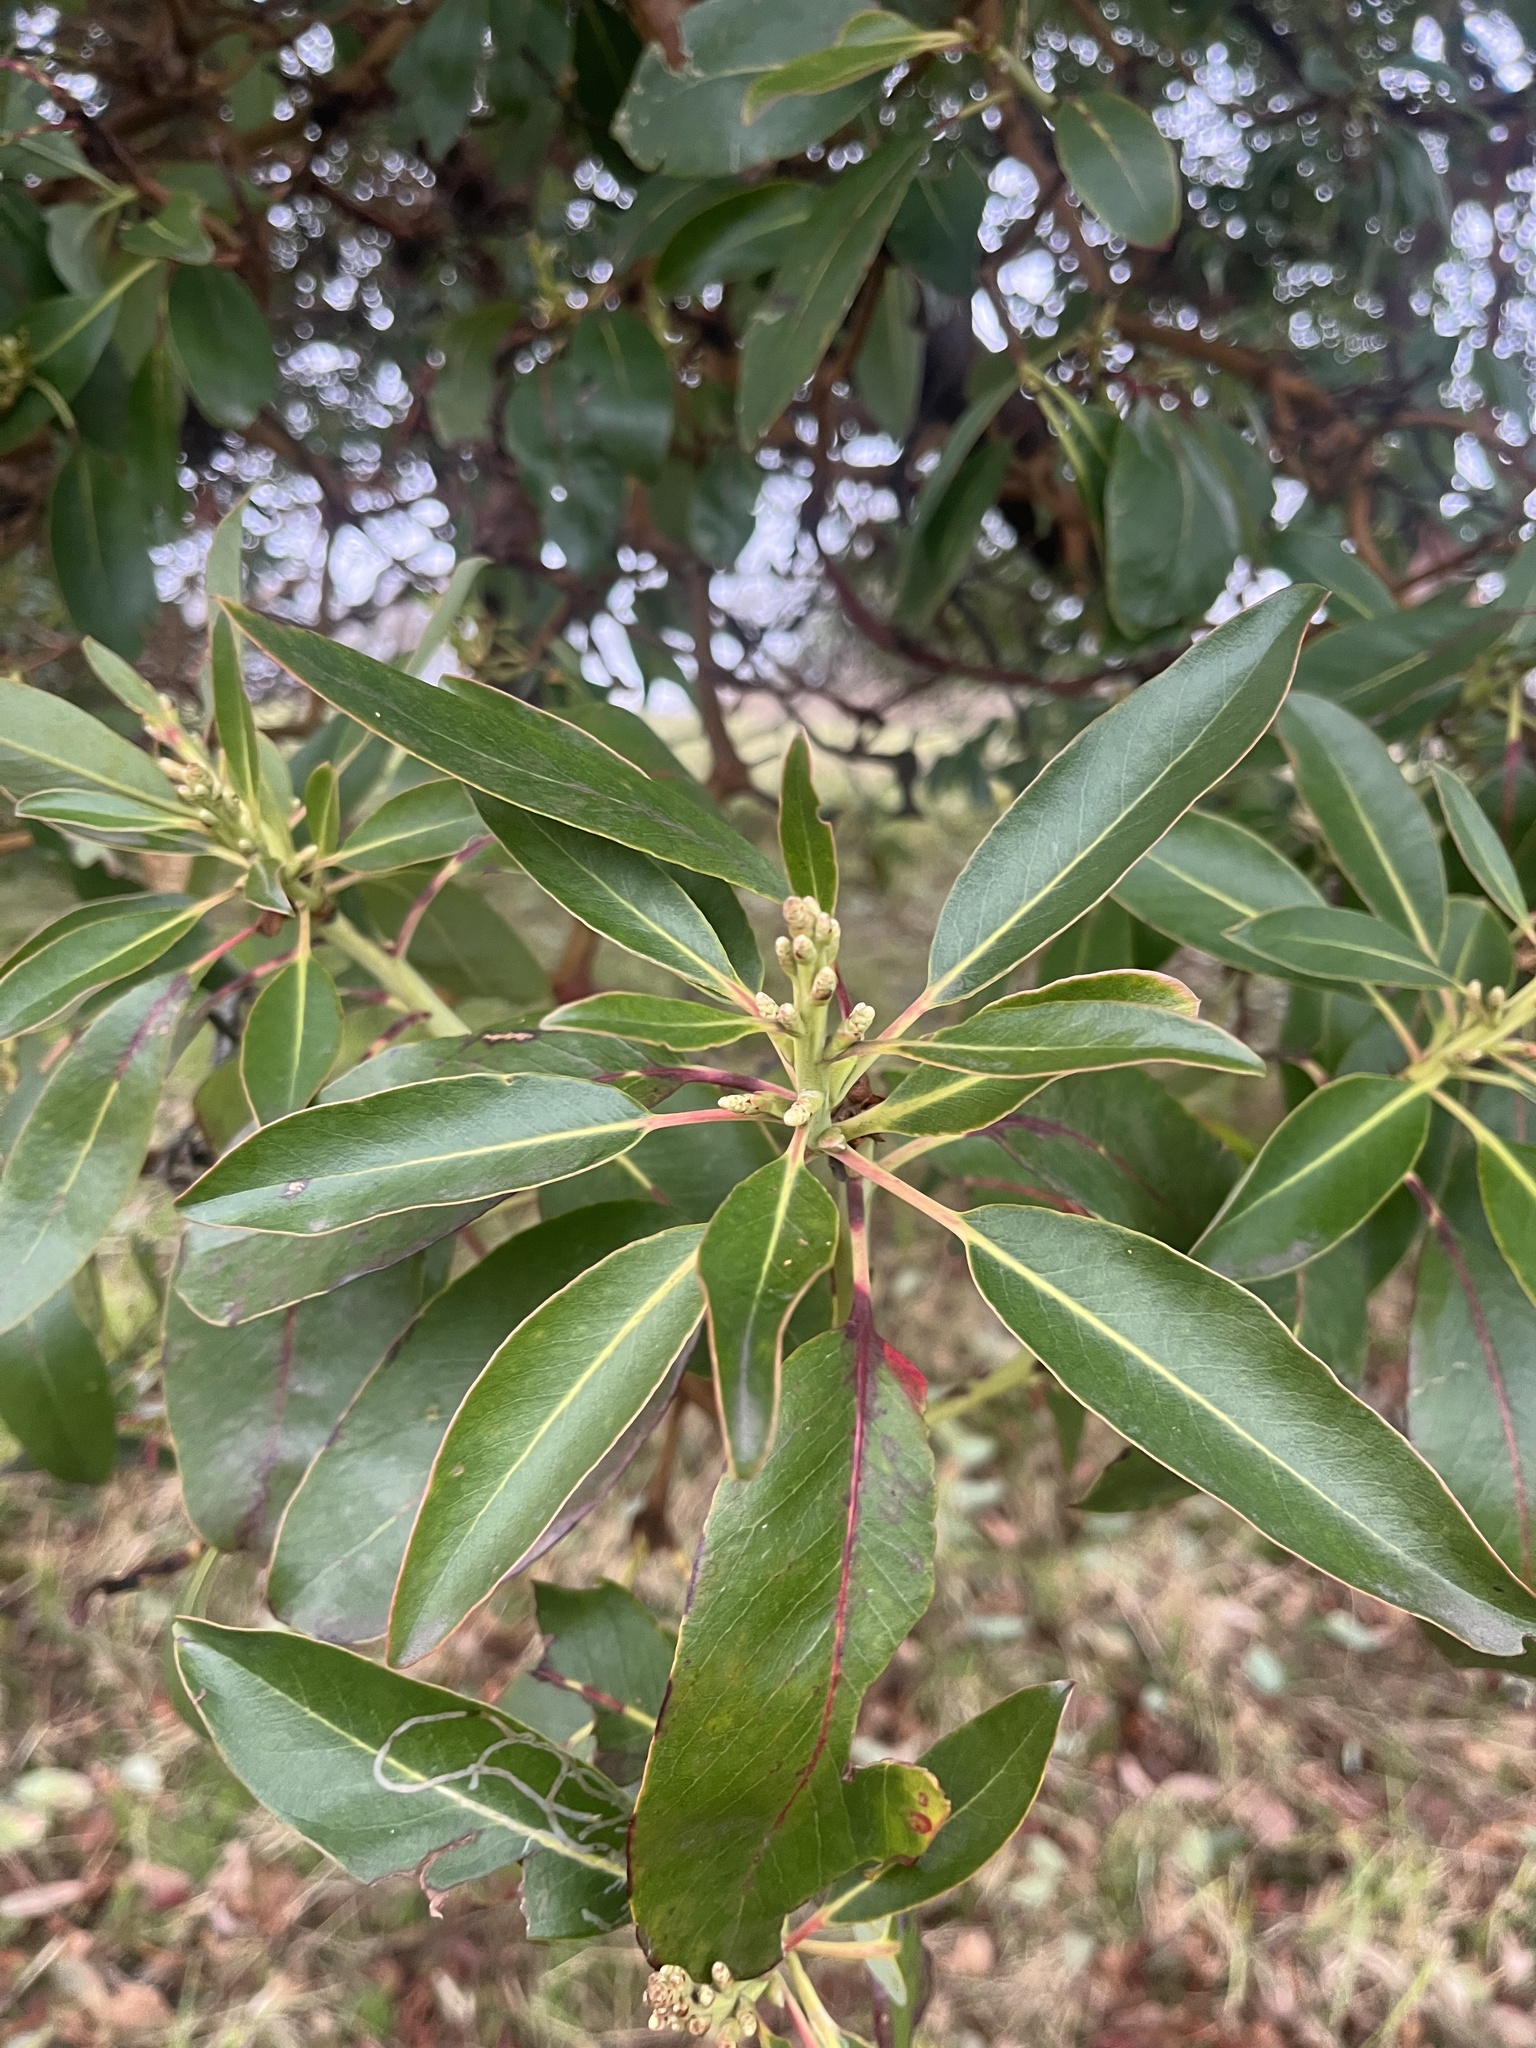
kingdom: Plantae
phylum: Tracheophyta
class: Magnoliopsida
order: Ericales
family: Ericaceae
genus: Arbutus
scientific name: Arbutus menziesii
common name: Pacific madrone
